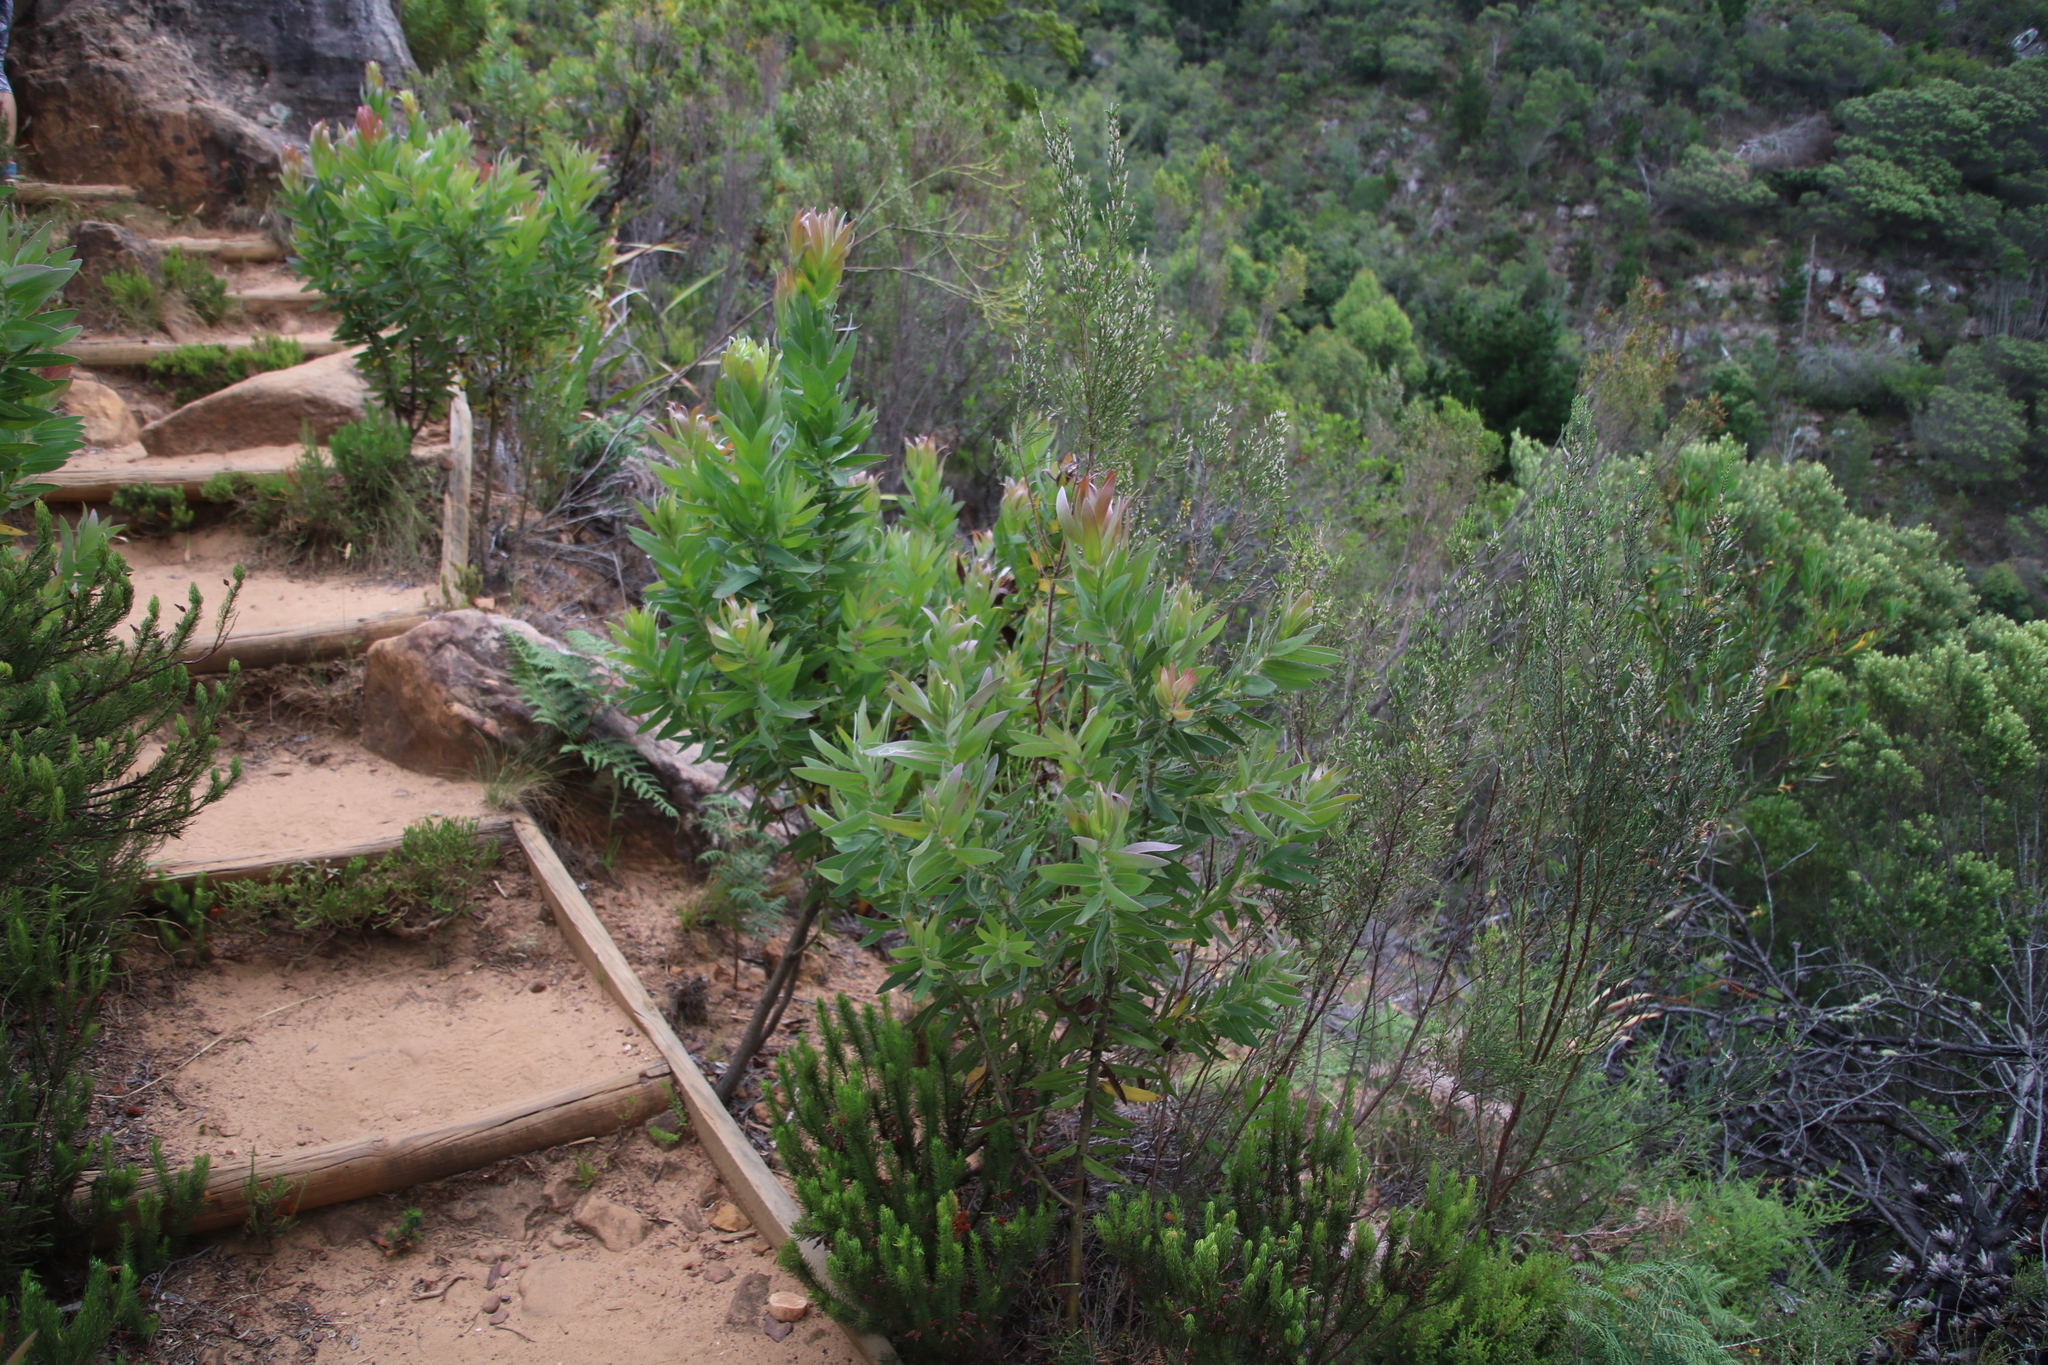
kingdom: Plantae
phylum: Tracheophyta
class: Magnoliopsida
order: Proteales
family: Proteaceae
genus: Protea
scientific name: Protea coronata
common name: Green sugarbush
